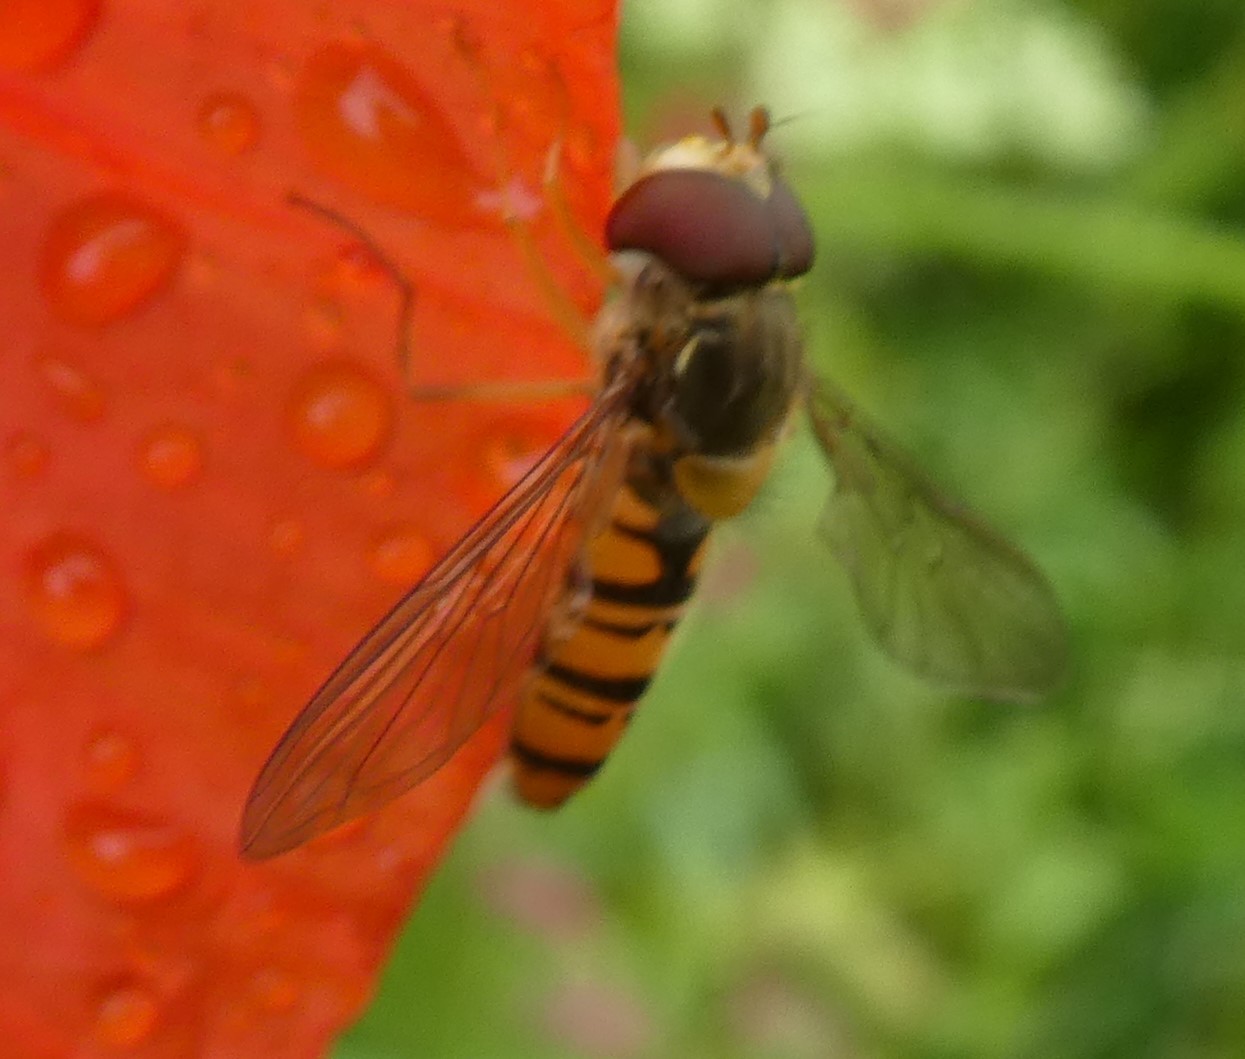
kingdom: Animalia
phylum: Arthropoda
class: Insecta
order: Diptera
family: Syrphidae
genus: Episyrphus
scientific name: Episyrphus balteatus
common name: Marmalade hoverfly
